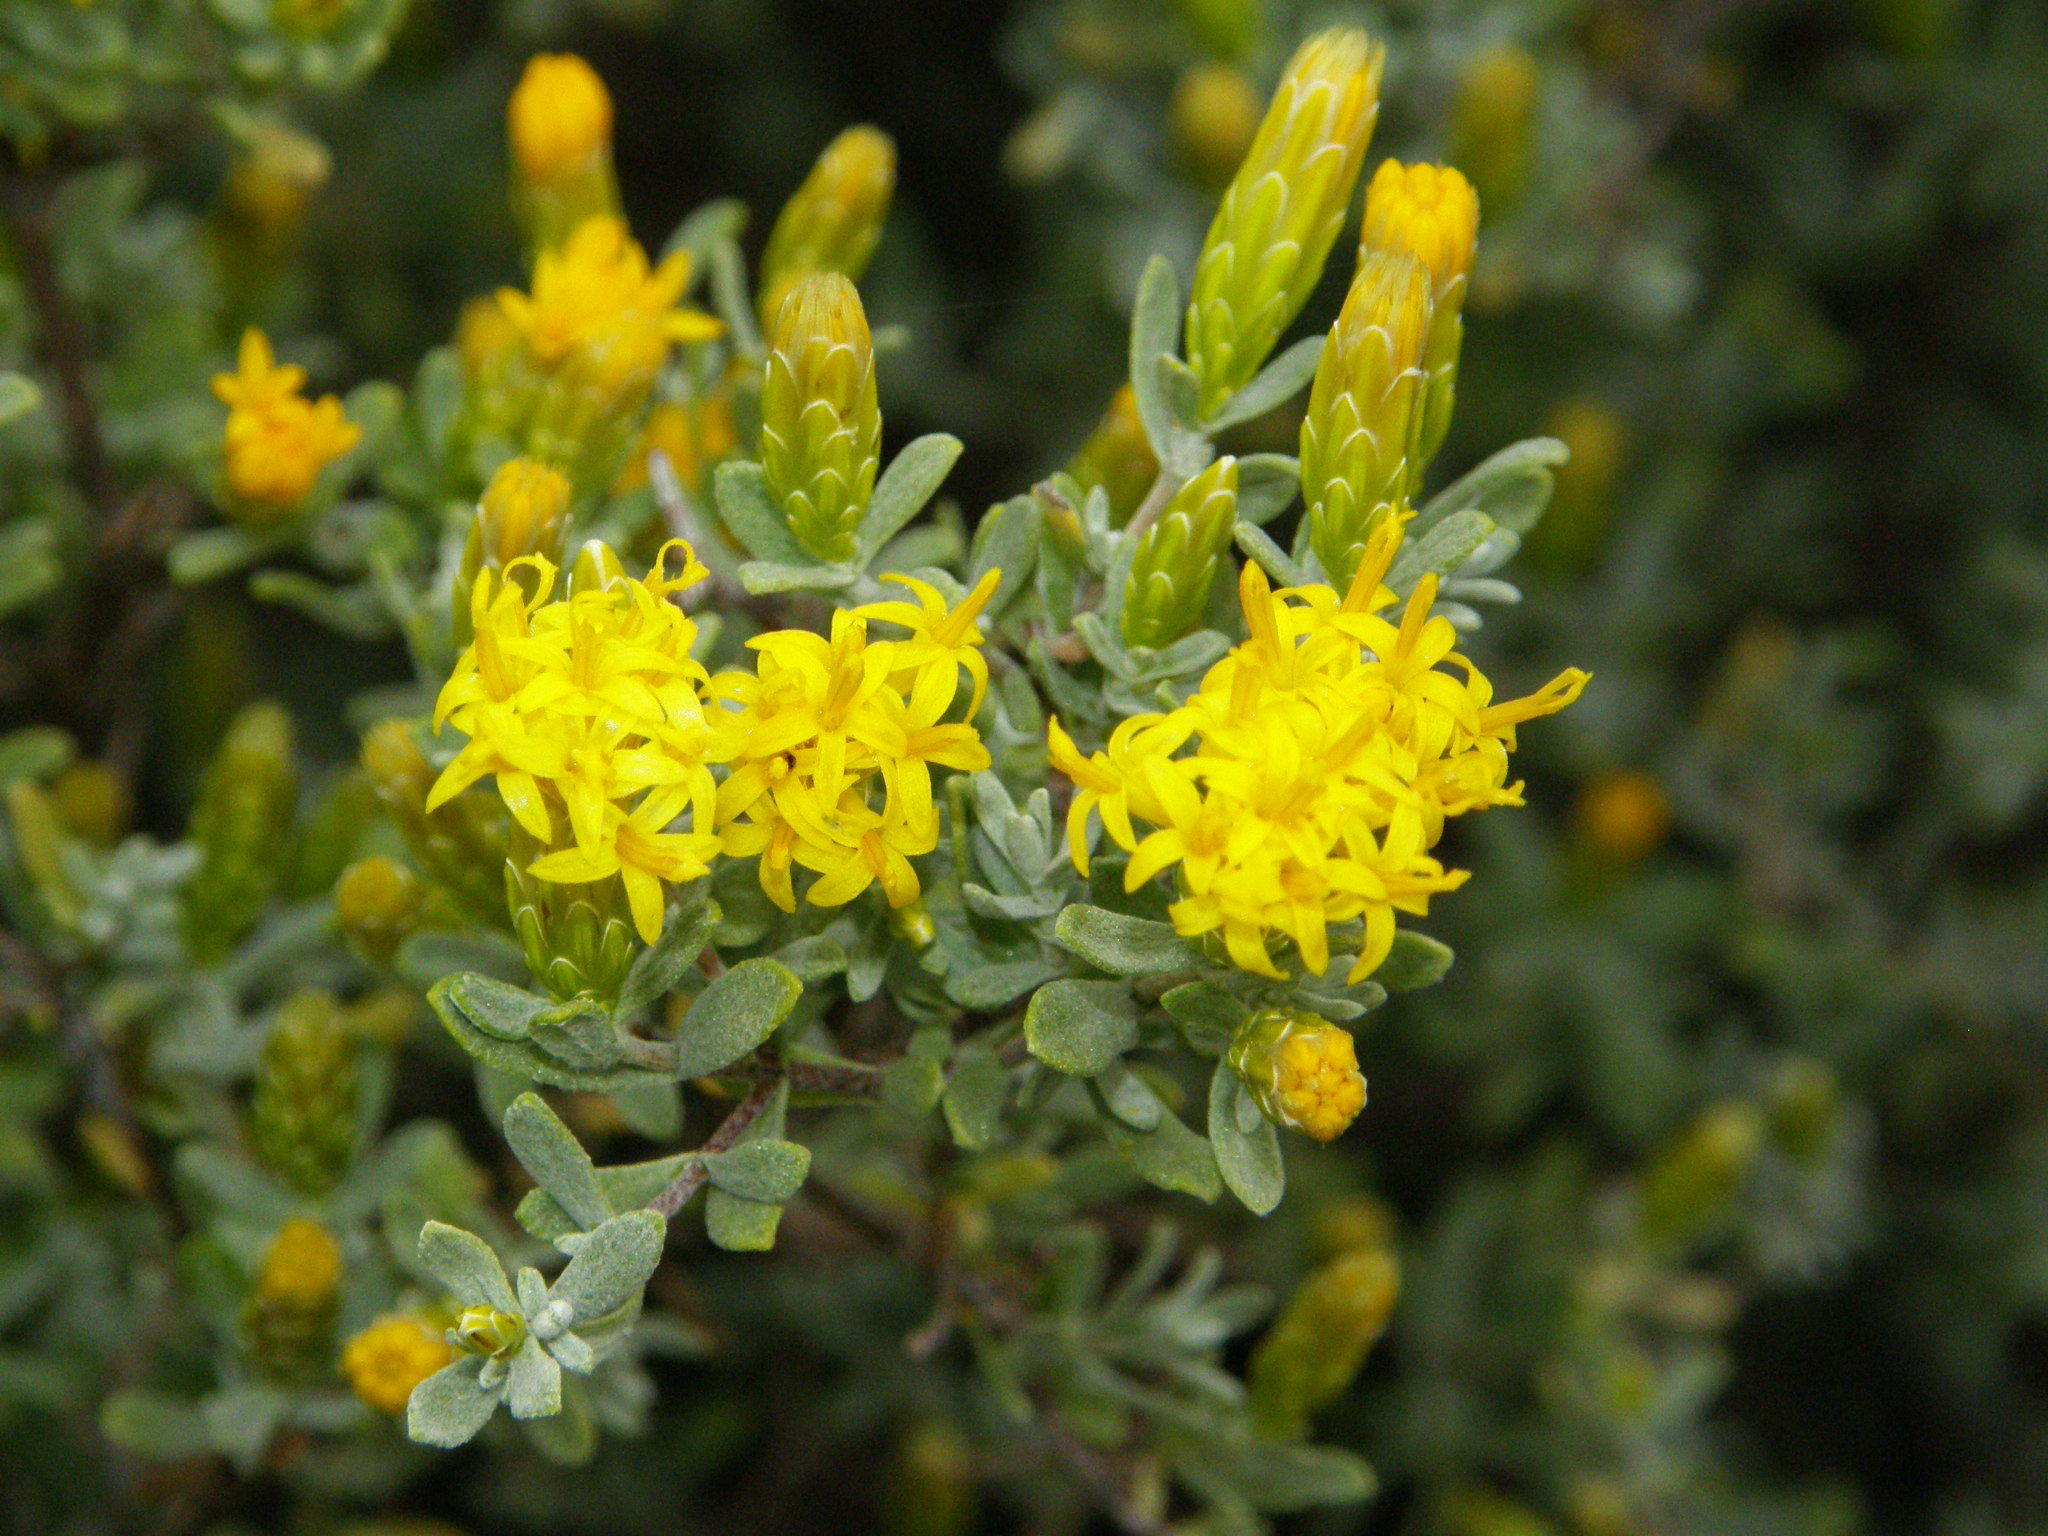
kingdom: Plantae
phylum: Tracheophyta
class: Magnoliopsida
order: Asterales
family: Asteraceae
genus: Pteronia
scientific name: Pteronia incana
